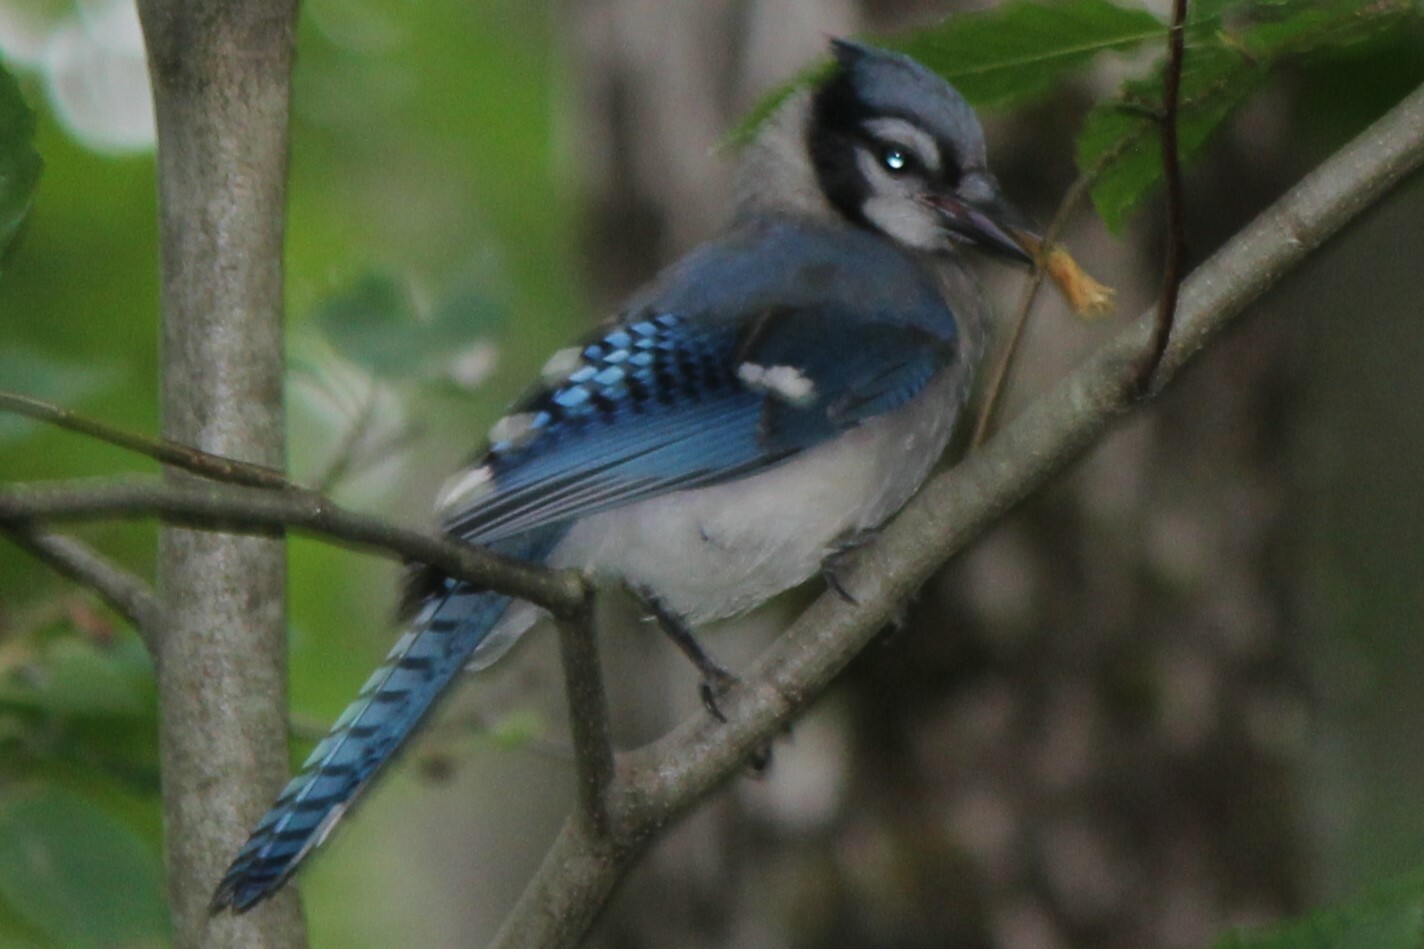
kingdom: Animalia
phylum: Chordata
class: Aves
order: Passeriformes
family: Corvidae
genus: Cyanocitta
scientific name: Cyanocitta cristata
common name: Blue jay
